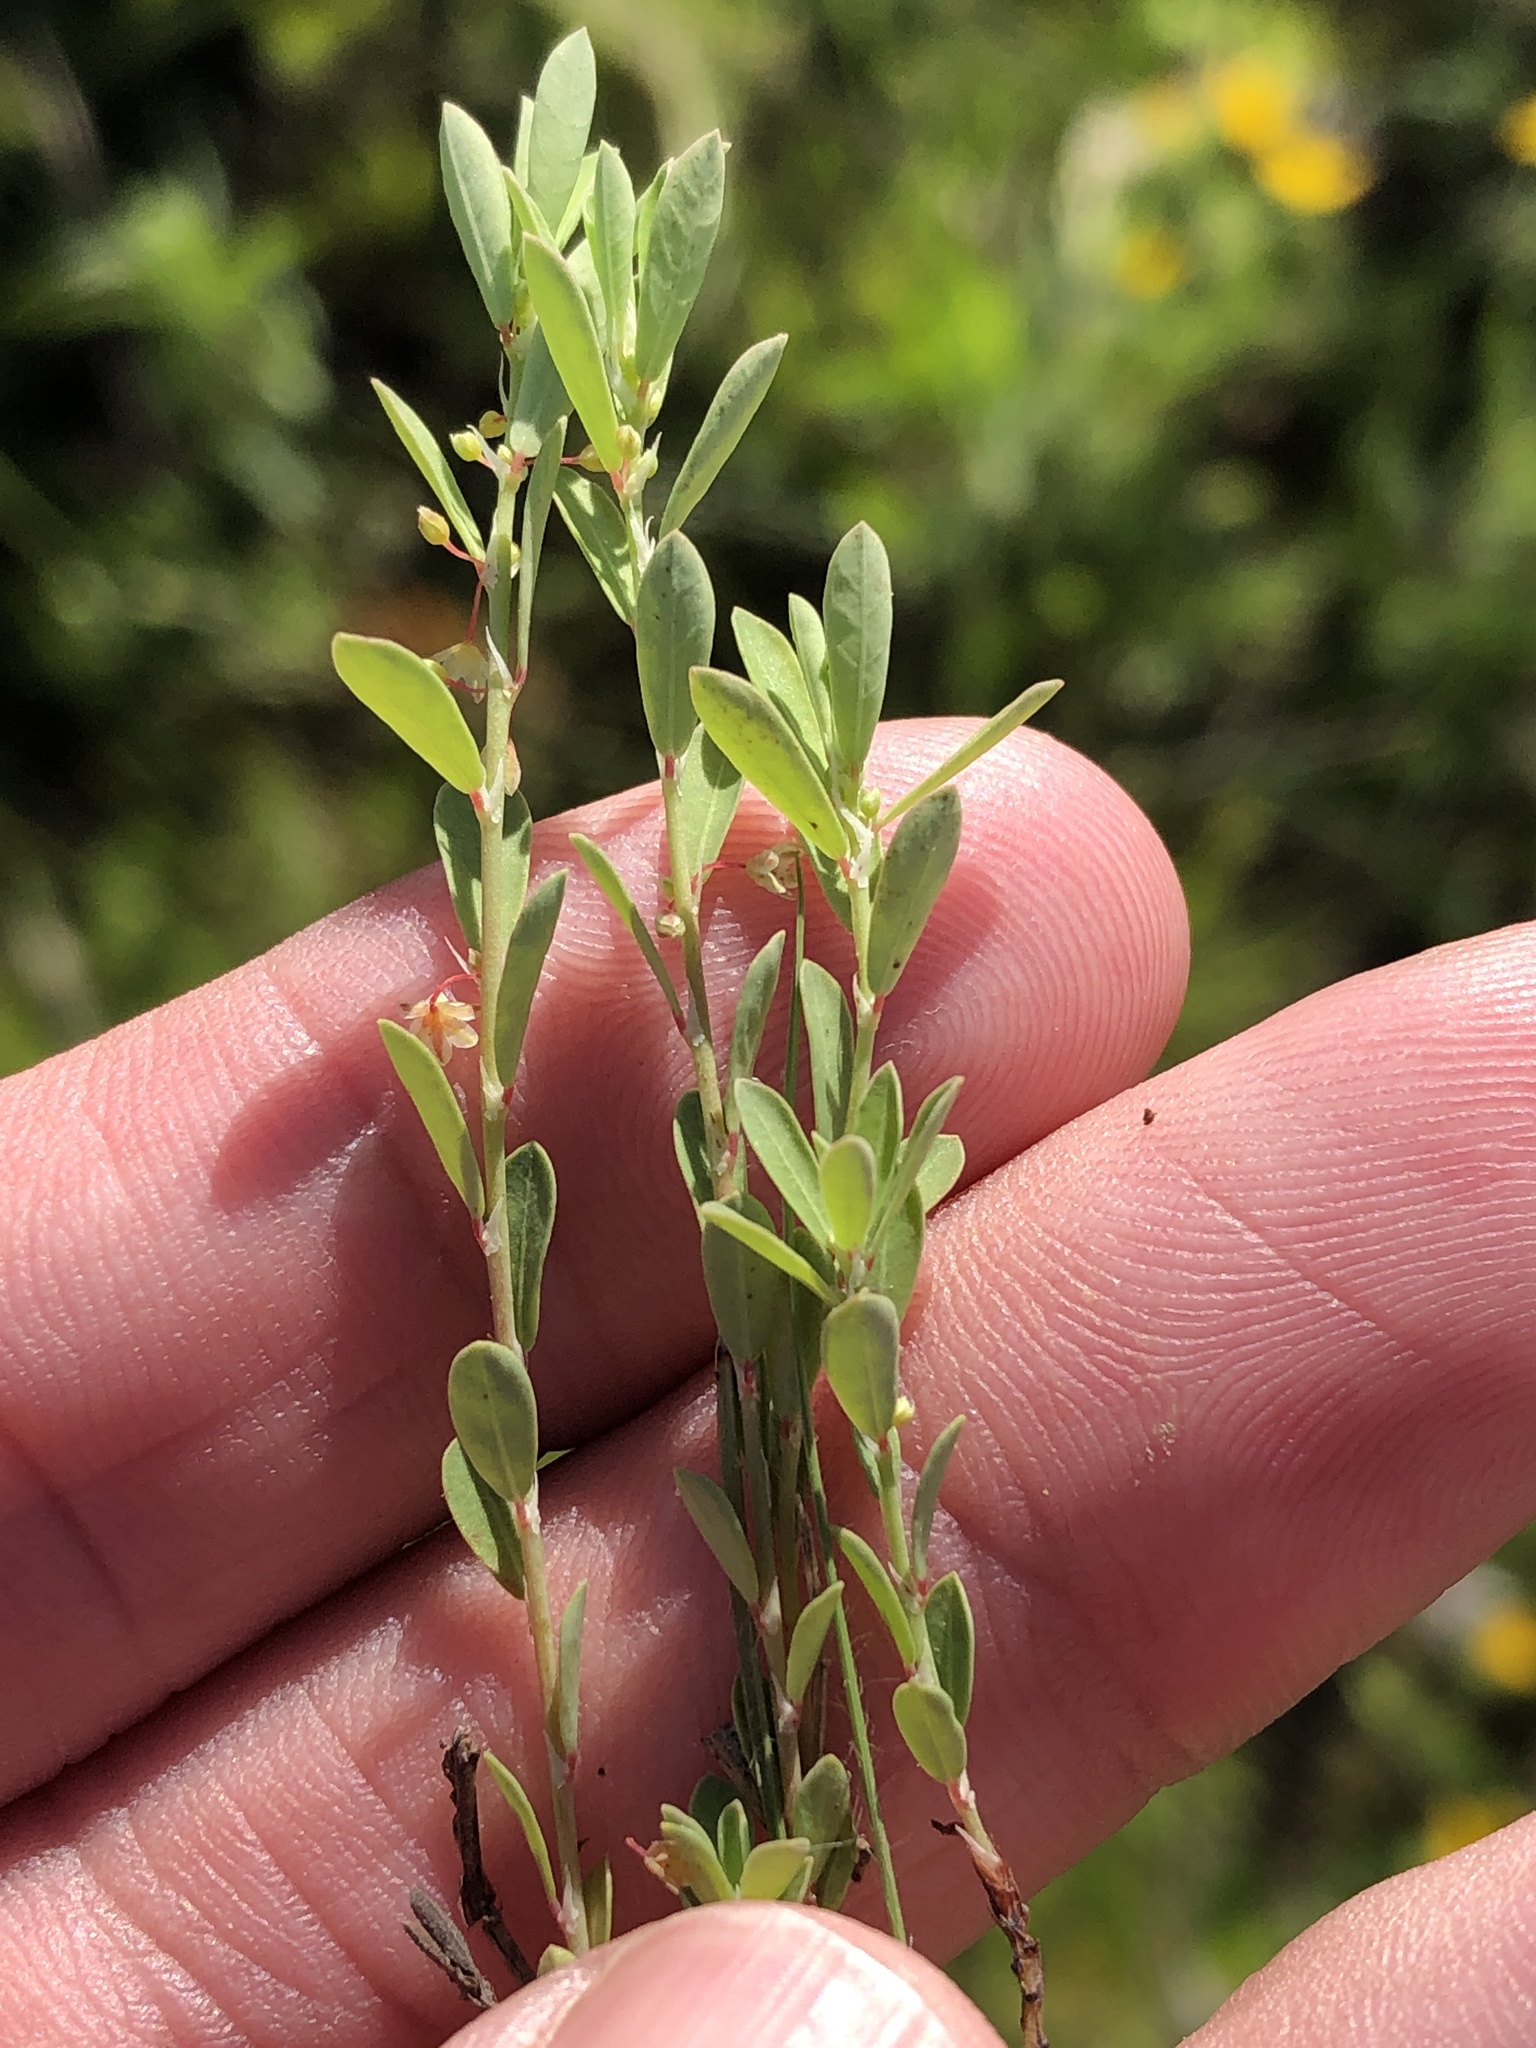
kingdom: Plantae
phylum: Tracheophyta
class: Magnoliopsida
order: Malpighiales
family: Phyllanthaceae
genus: Phyllanthus
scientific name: Phyllanthus polygonoides
